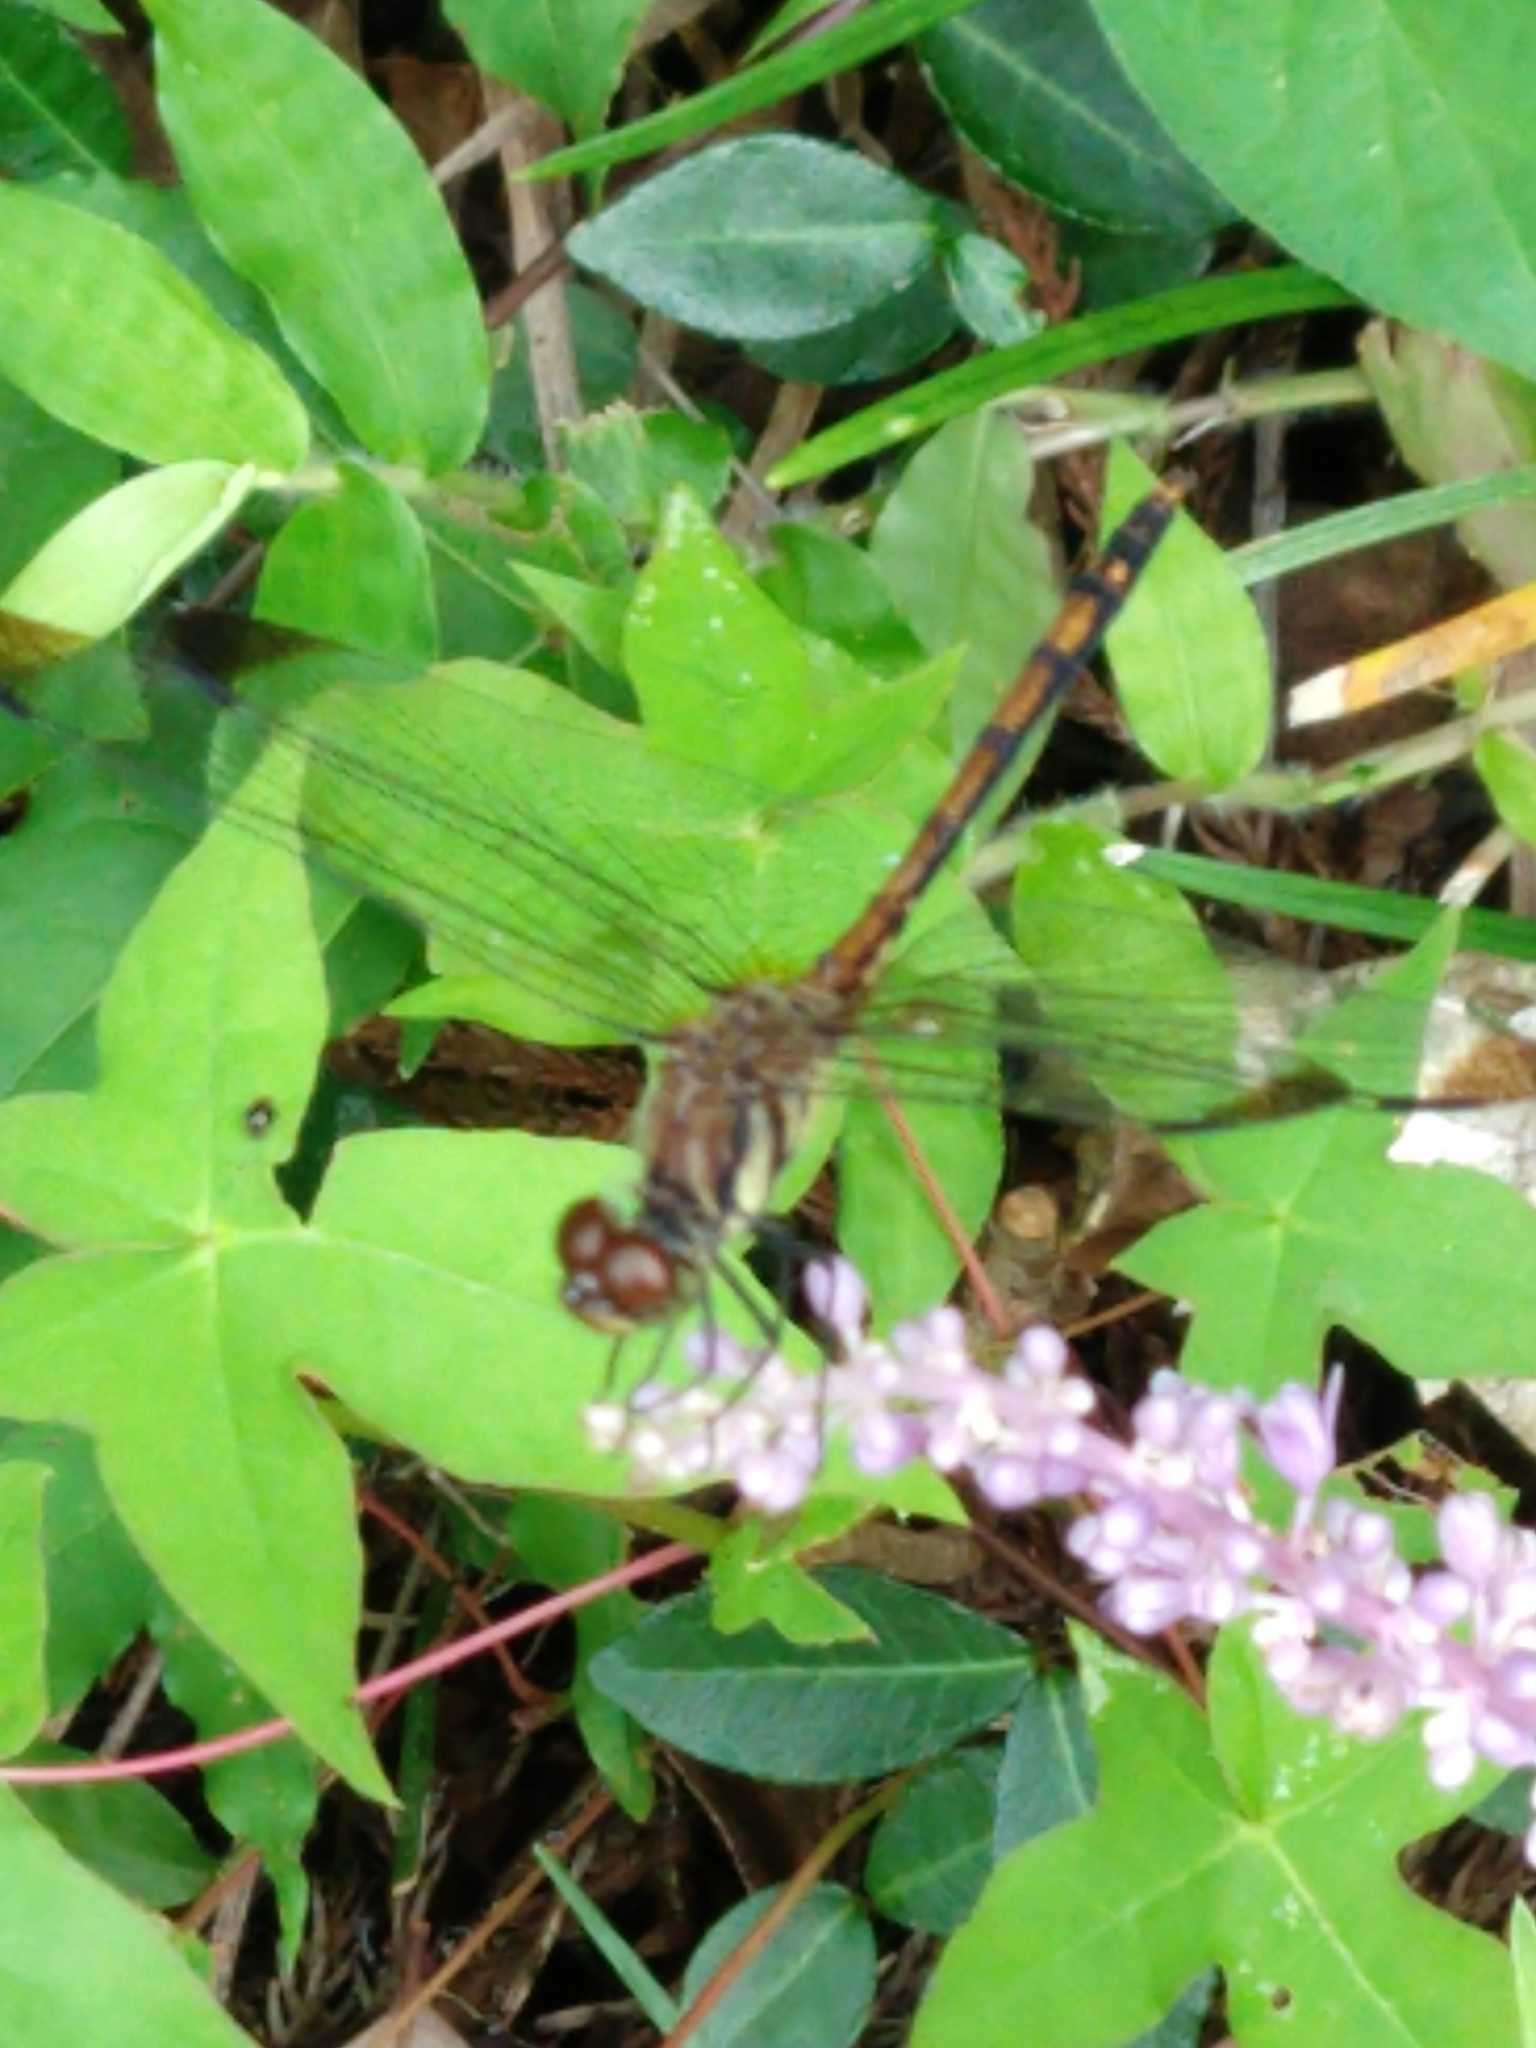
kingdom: Animalia
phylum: Arthropoda
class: Insecta
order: Odonata
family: Libellulidae
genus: Sympetrum
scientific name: Sympetrum infuscatum
